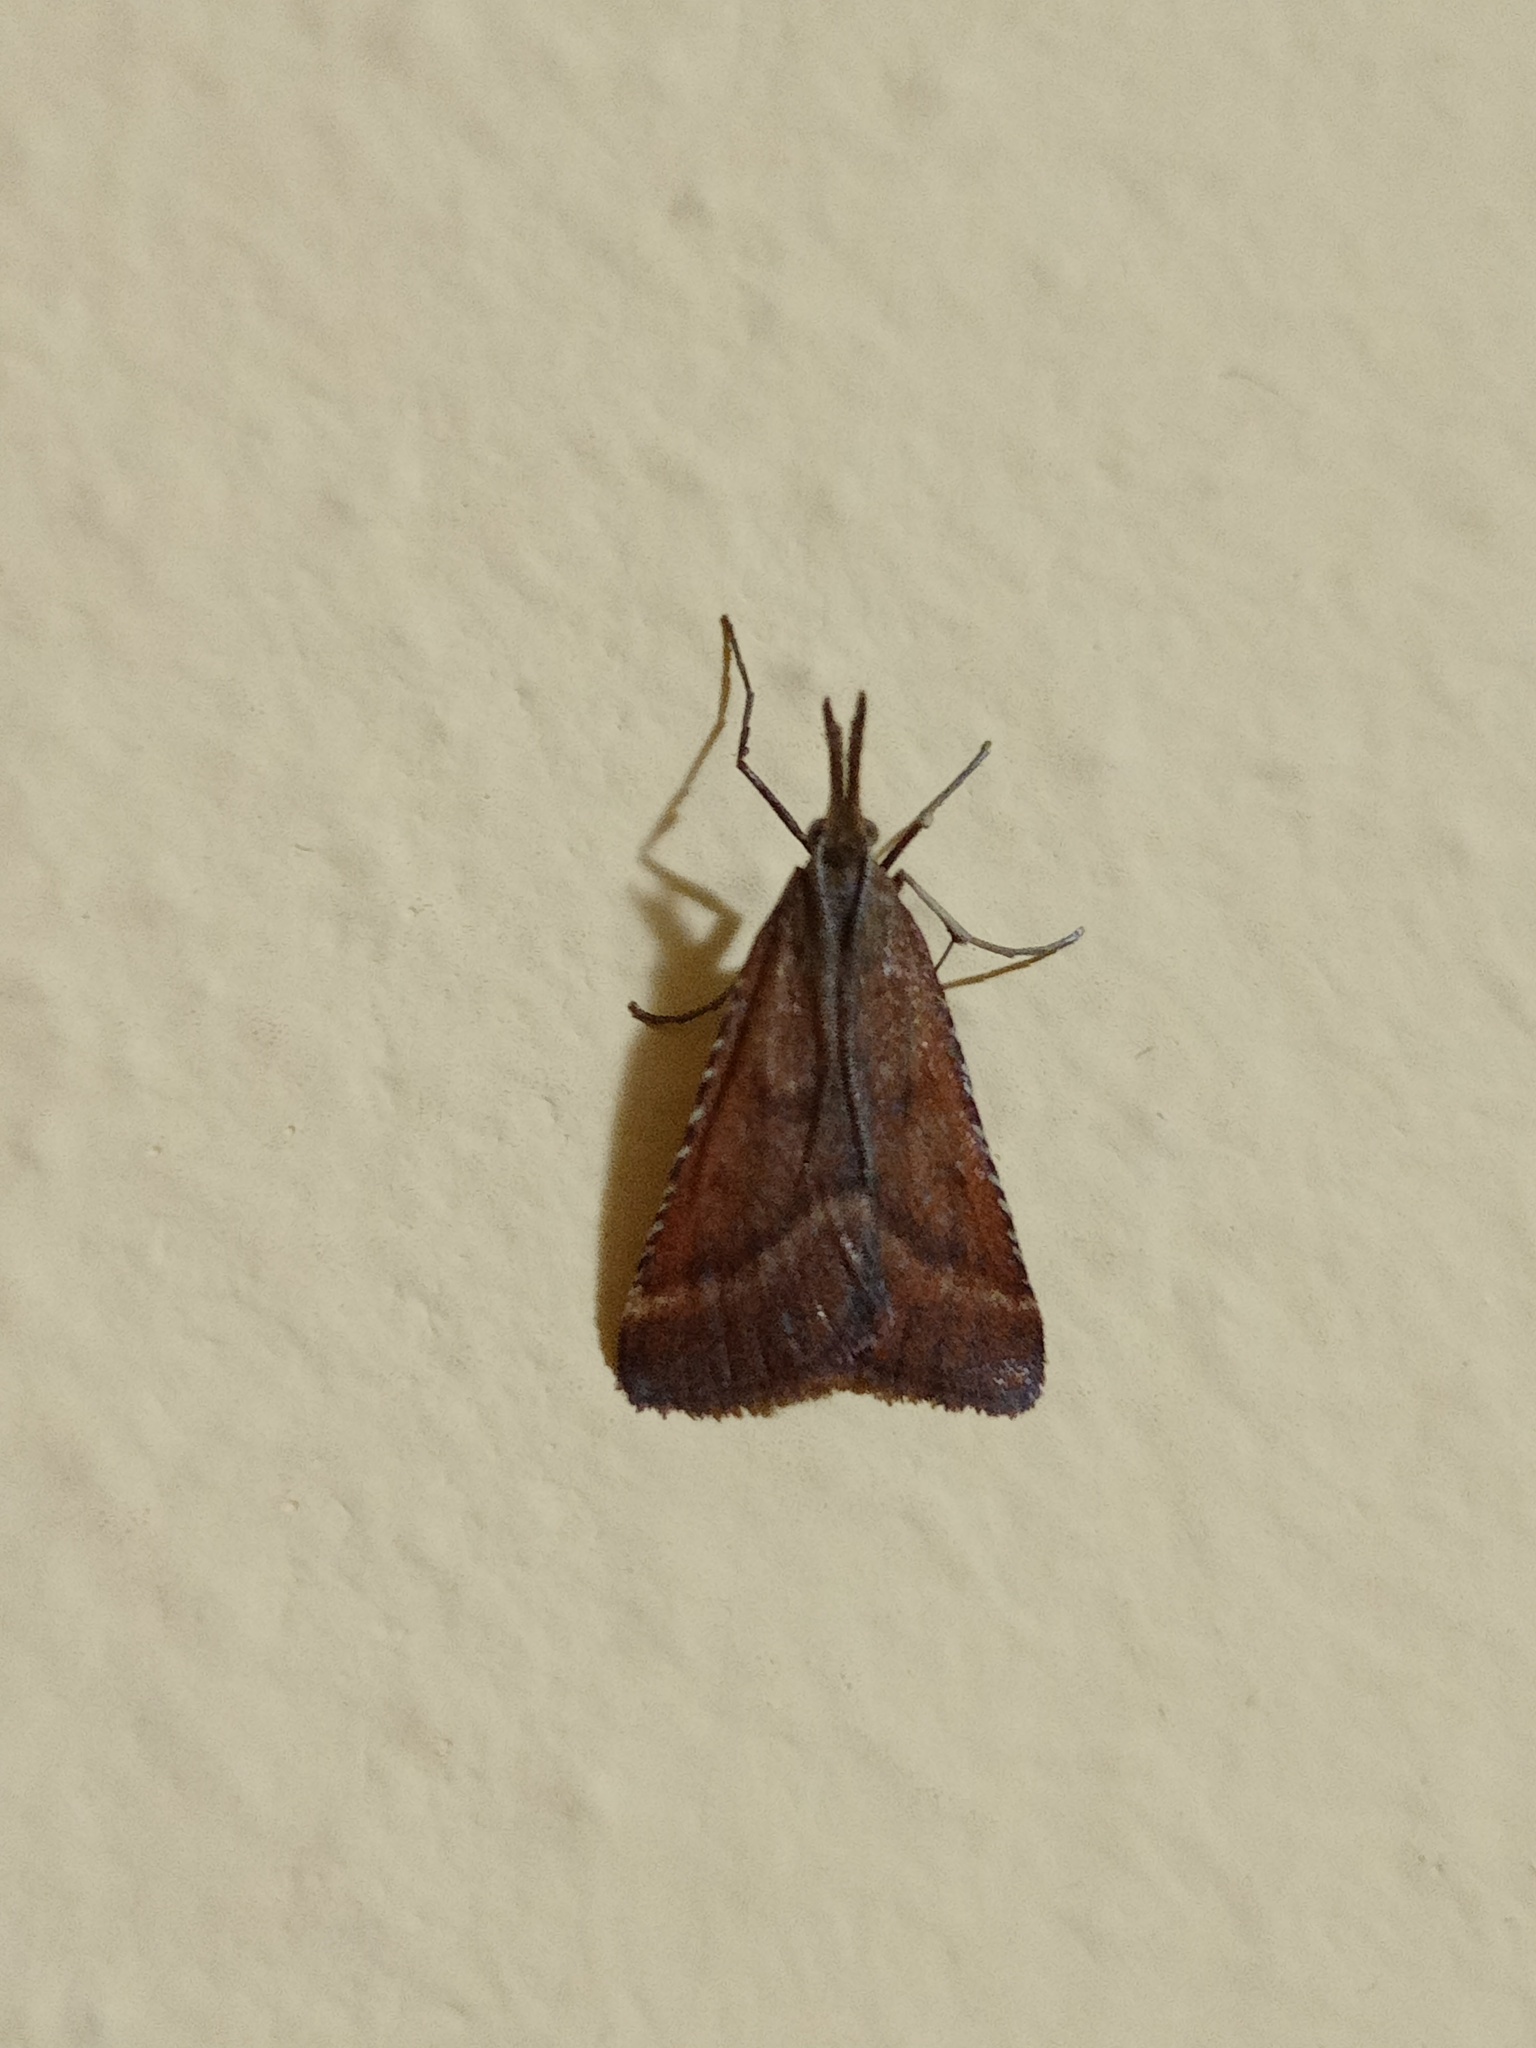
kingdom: Animalia
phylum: Arthropoda
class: Insecta
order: Lepidoptera
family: Pyralidae
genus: Synaphe
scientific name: Synaphe punctalis
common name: Long-legged tabby
